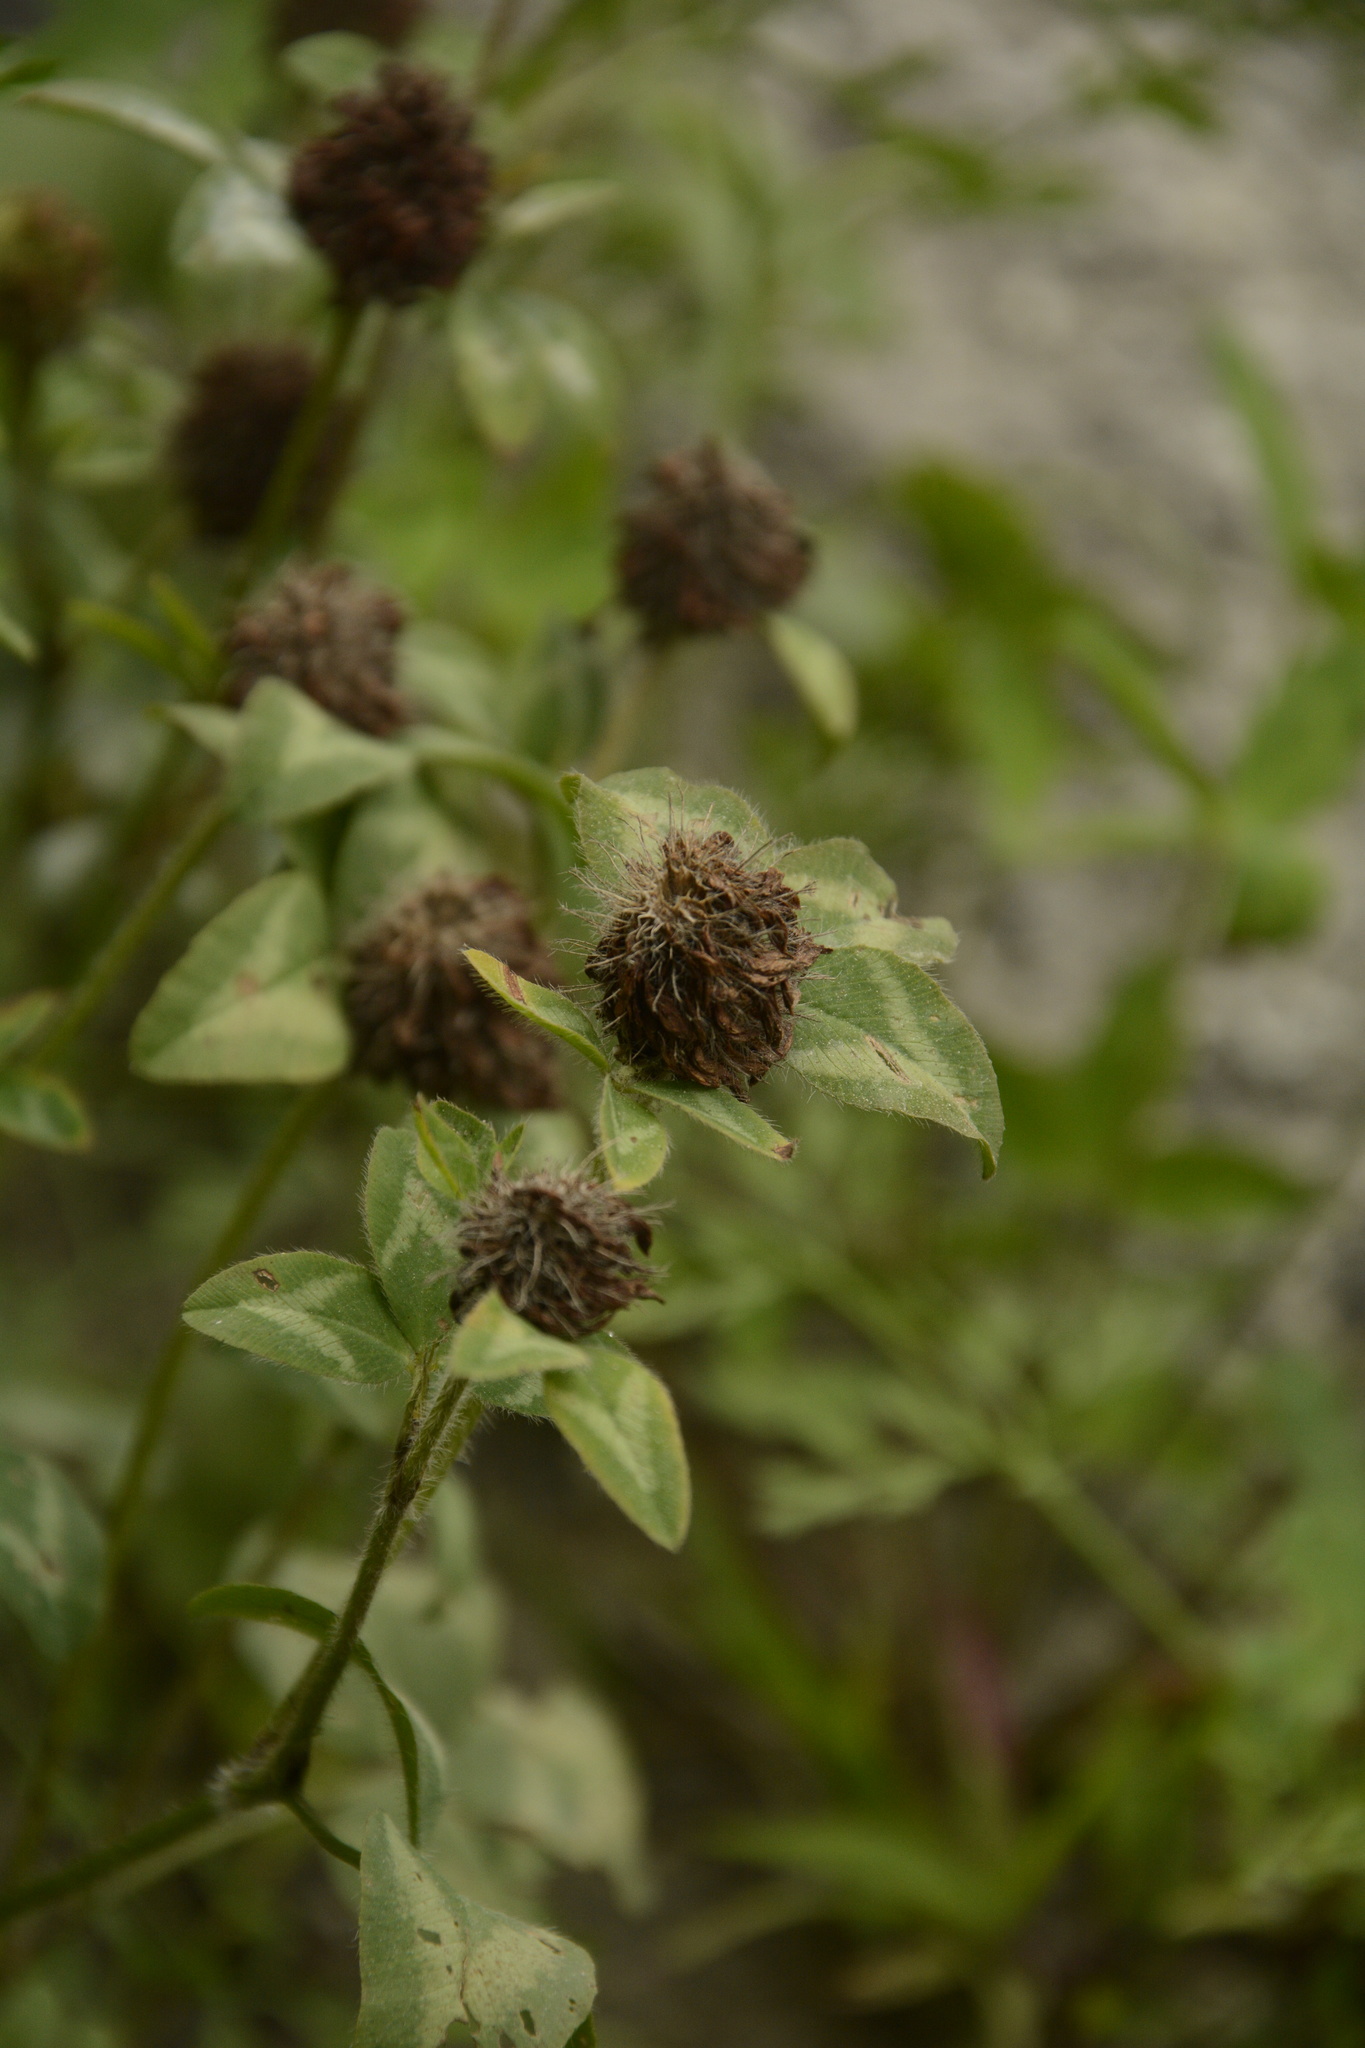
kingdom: Plantae
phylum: Tracheophyta
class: Magnoliopsida
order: Fabales
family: Fabaceae
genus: Trifolium
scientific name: Trifolium pratense
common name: Red clover
